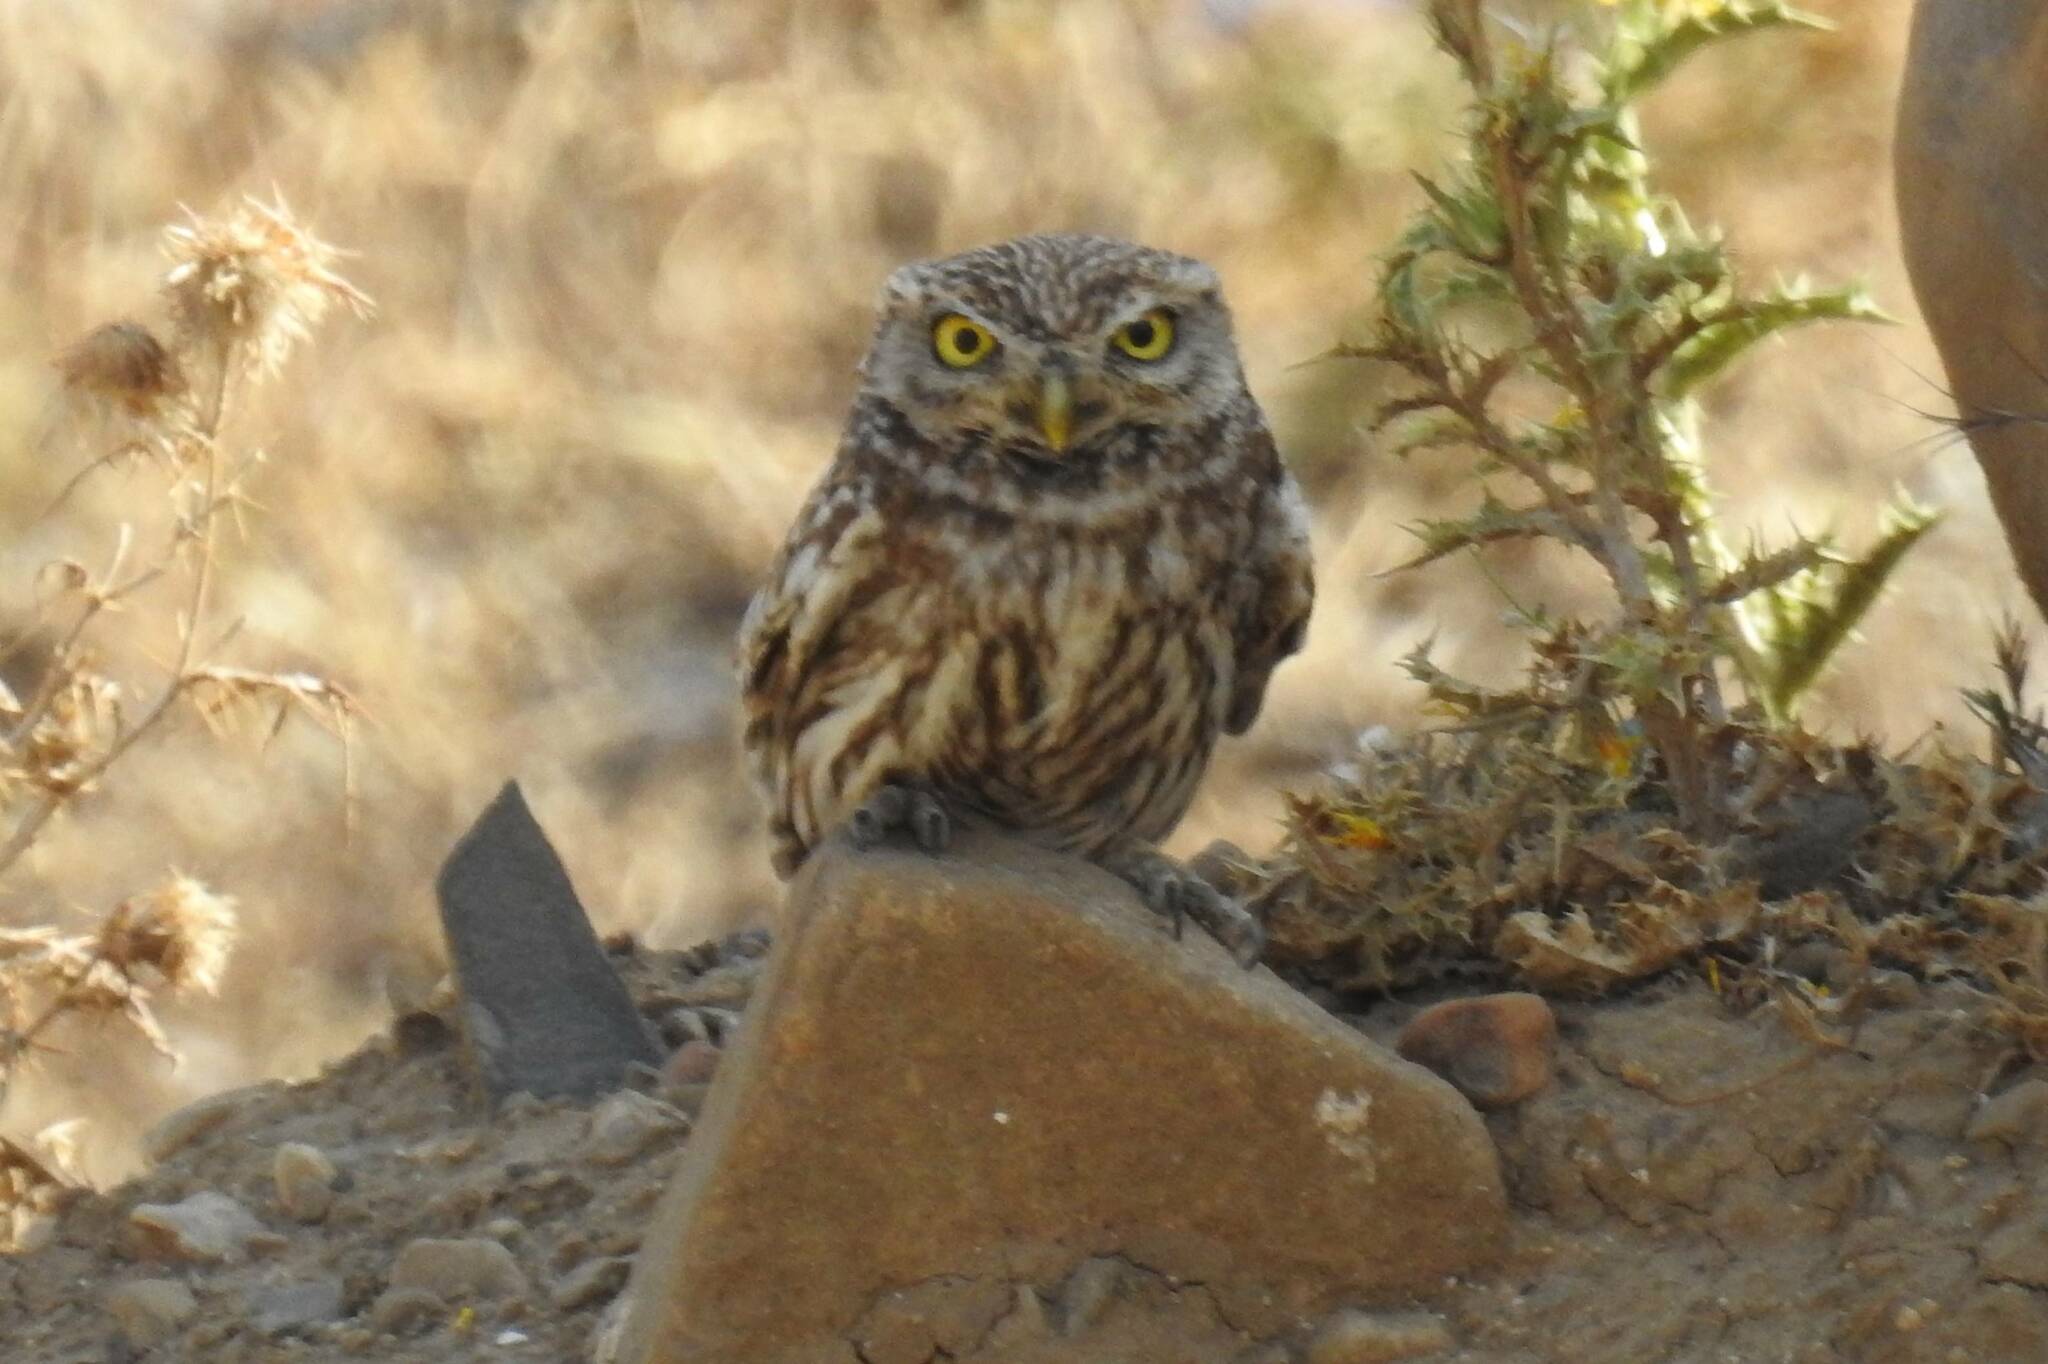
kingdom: Animalia
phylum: Chordata
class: Aves
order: Strigiformes
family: Strigidae
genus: Athene
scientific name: Athene noctua
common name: Little owl
